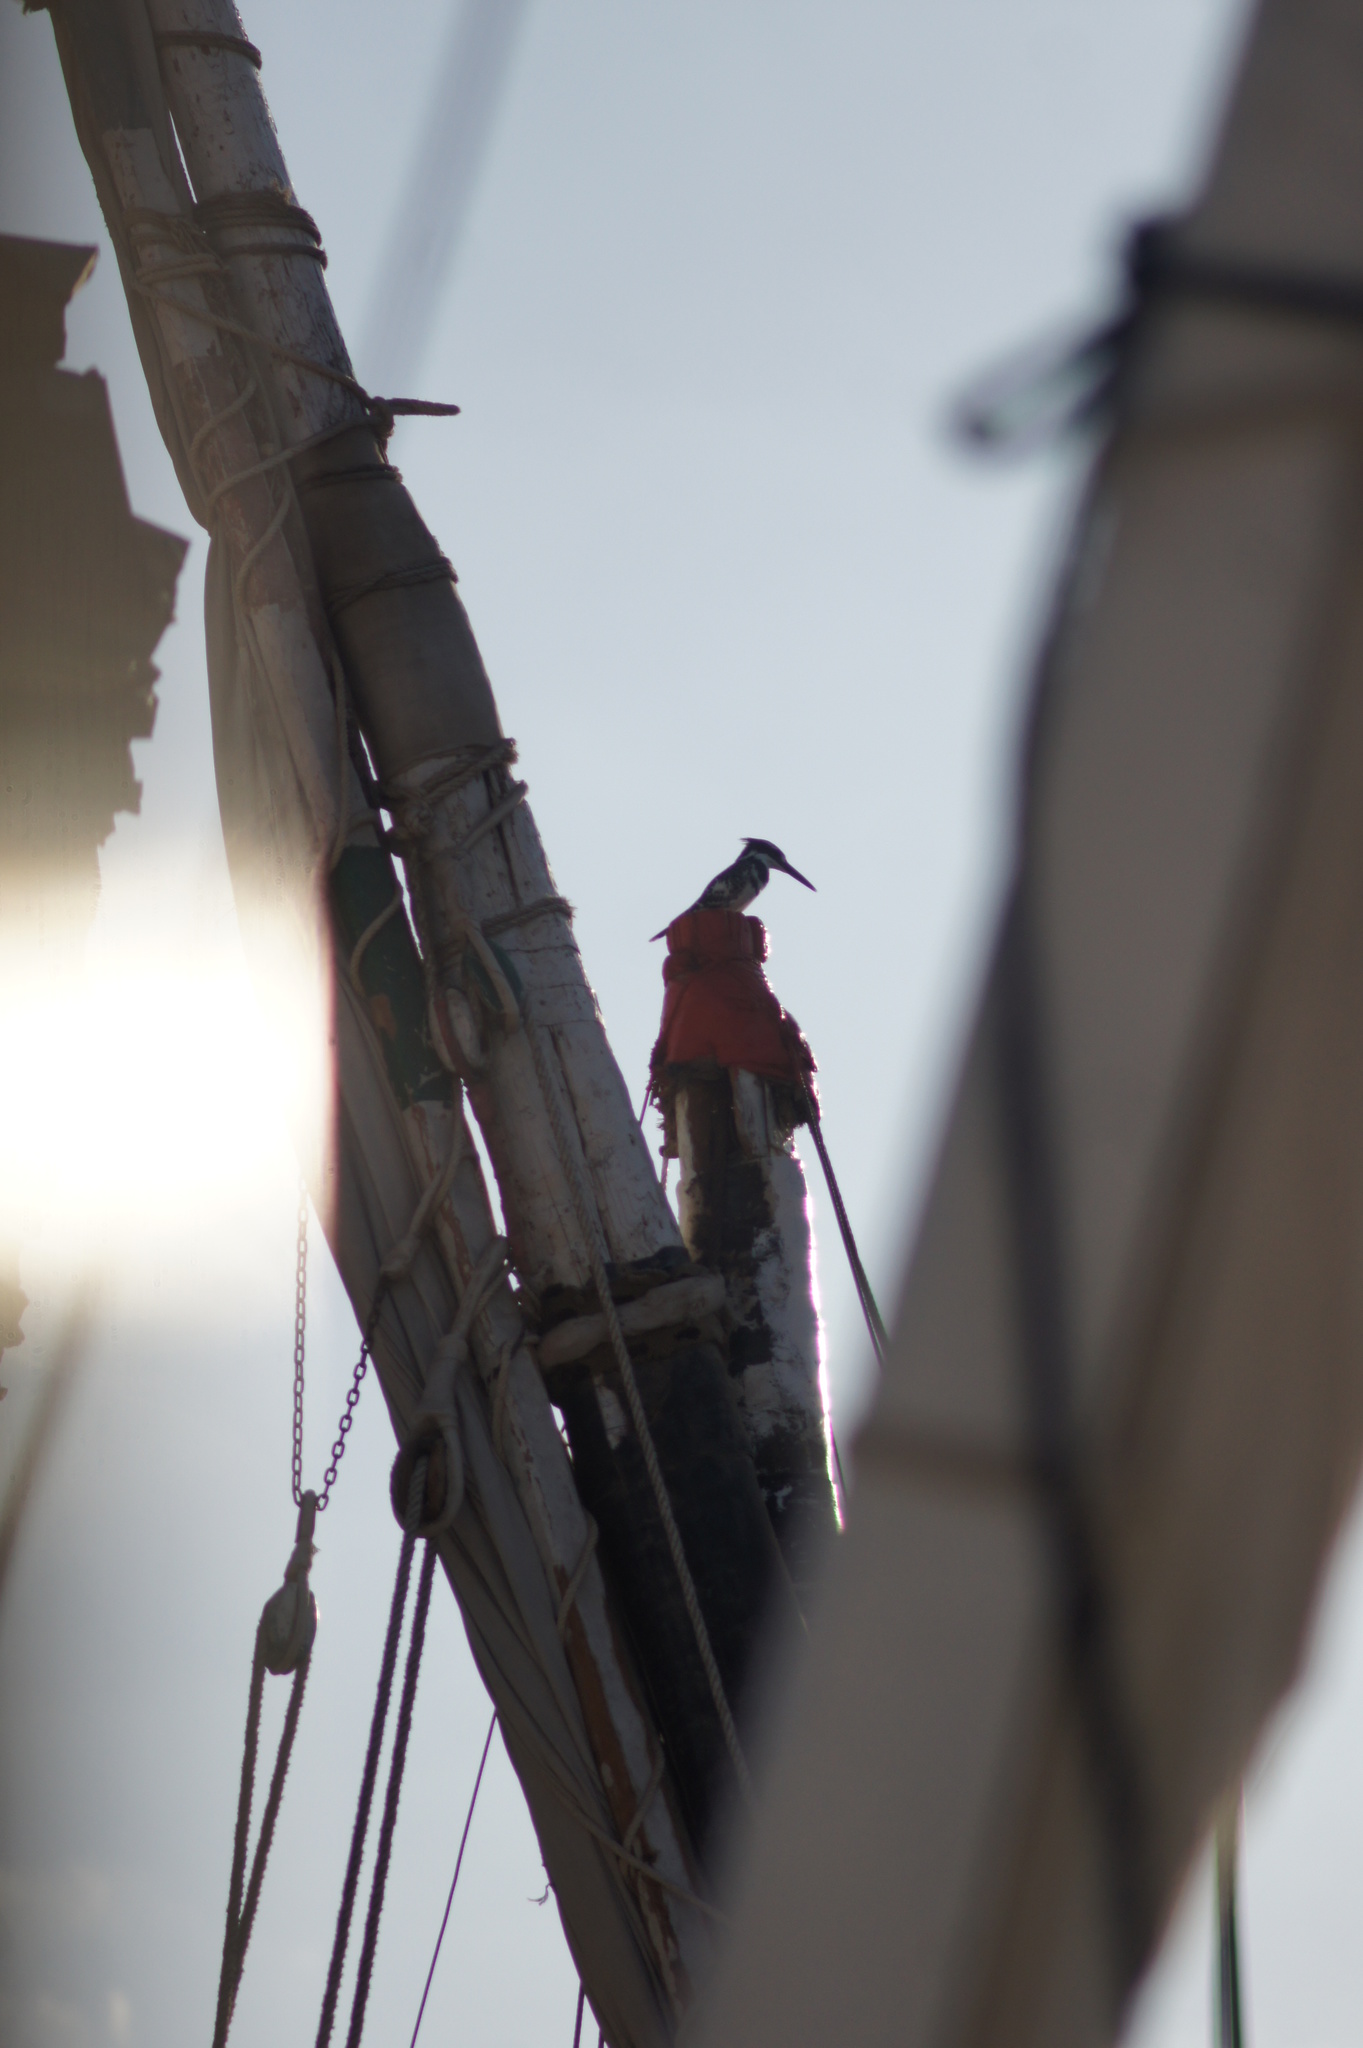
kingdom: Animalia
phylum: Chordata
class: Aves
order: Coraciiformes
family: Alcedinidae
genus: Ceryle
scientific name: Ceryle rudis
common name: Pied kingfisher
